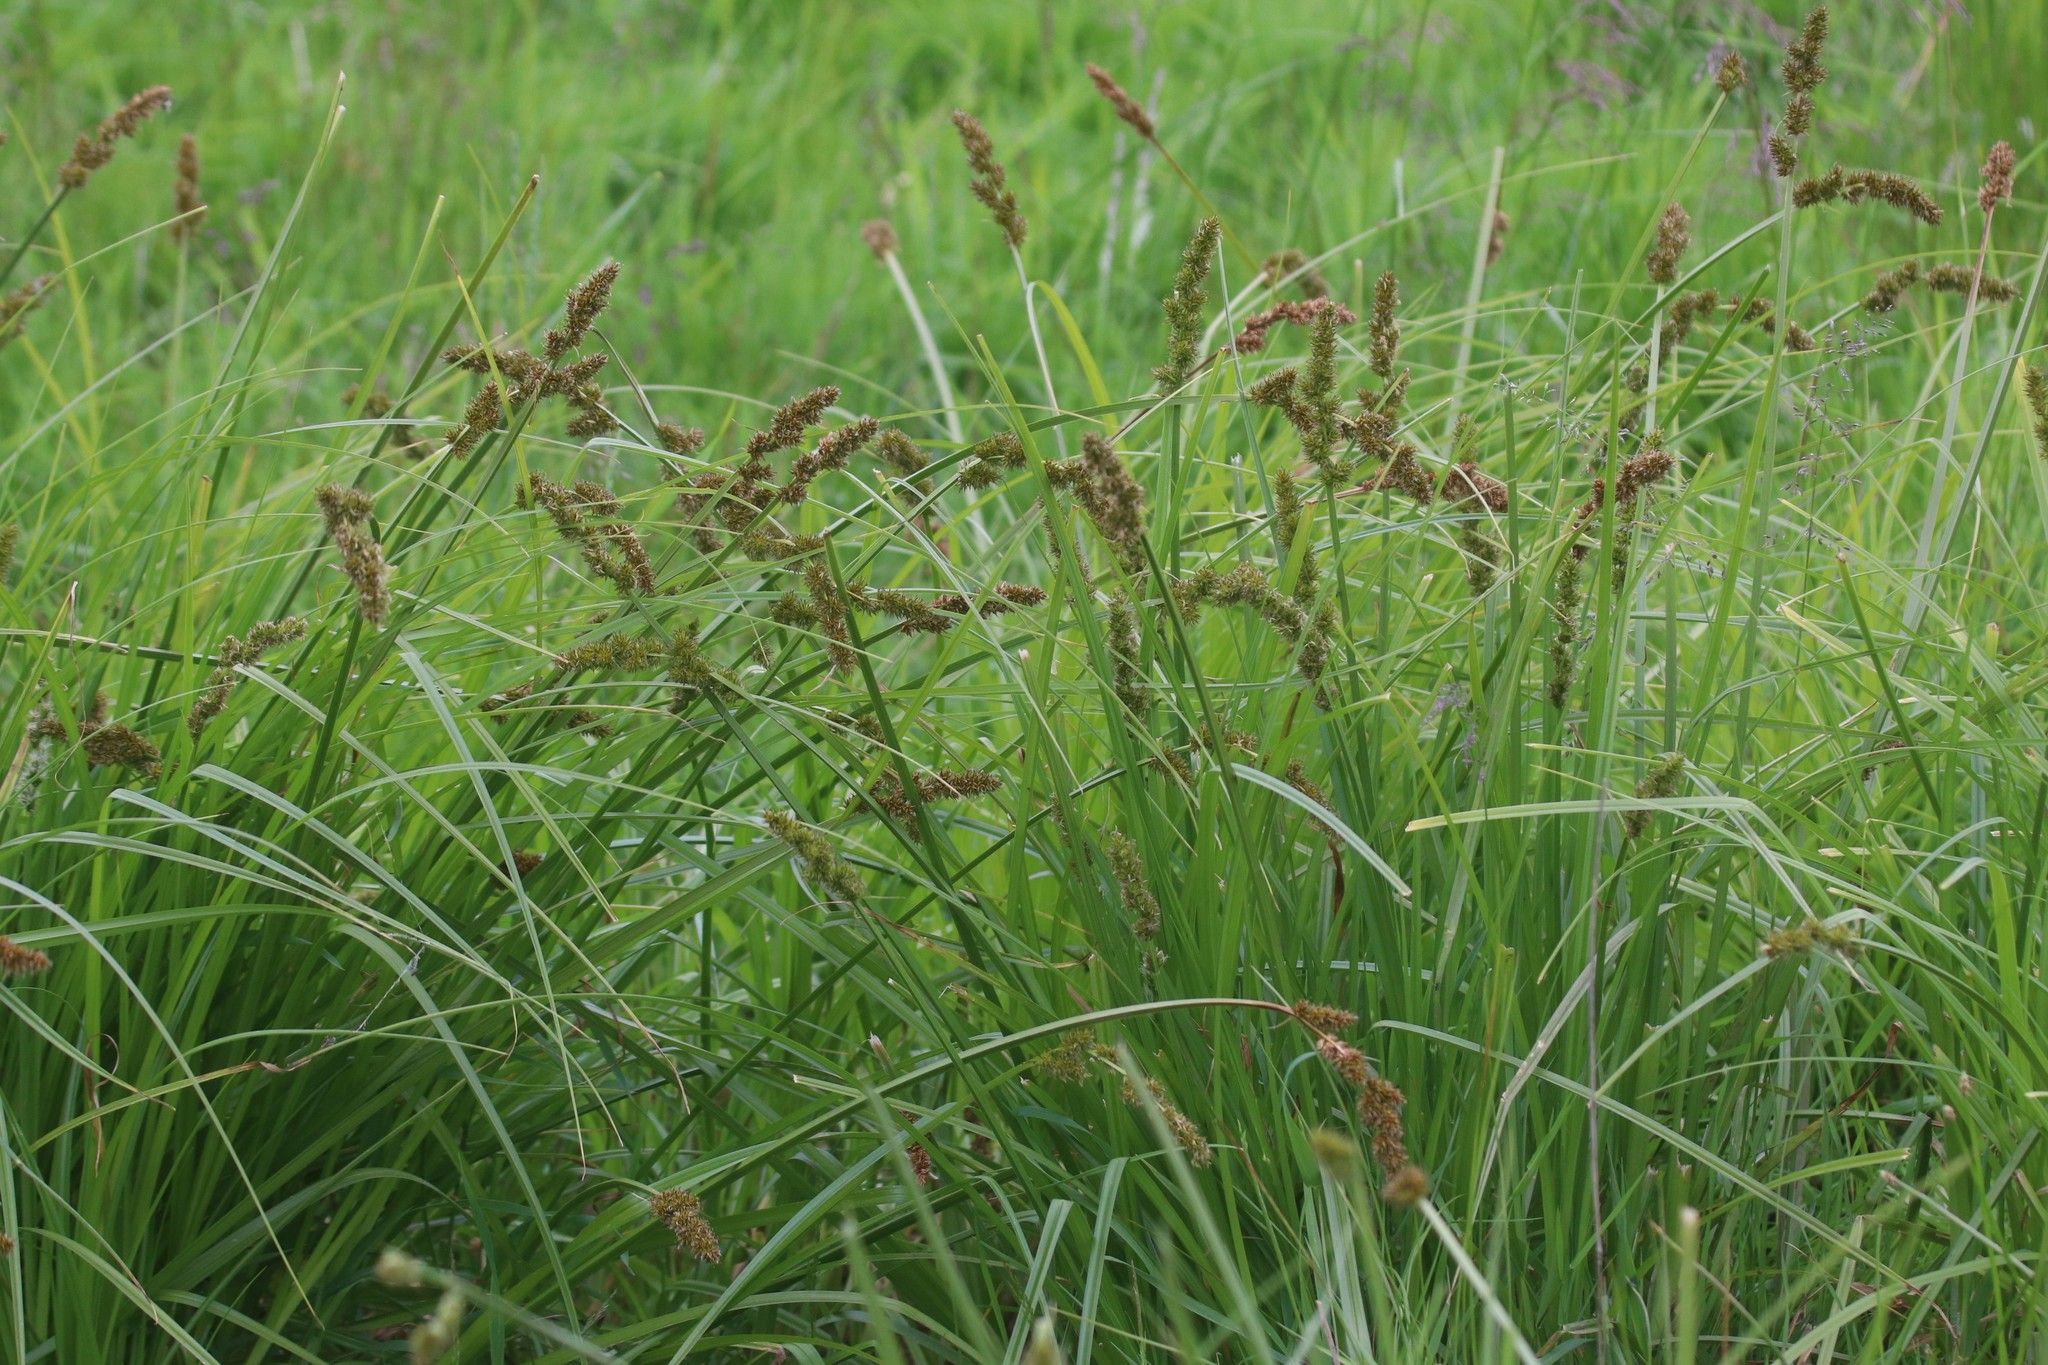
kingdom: Plantae
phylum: Tracheophyta
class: Liliopsida
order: Poales
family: Cyperaceae
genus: Carex
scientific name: Carex vulpina
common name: True fox-sedge
